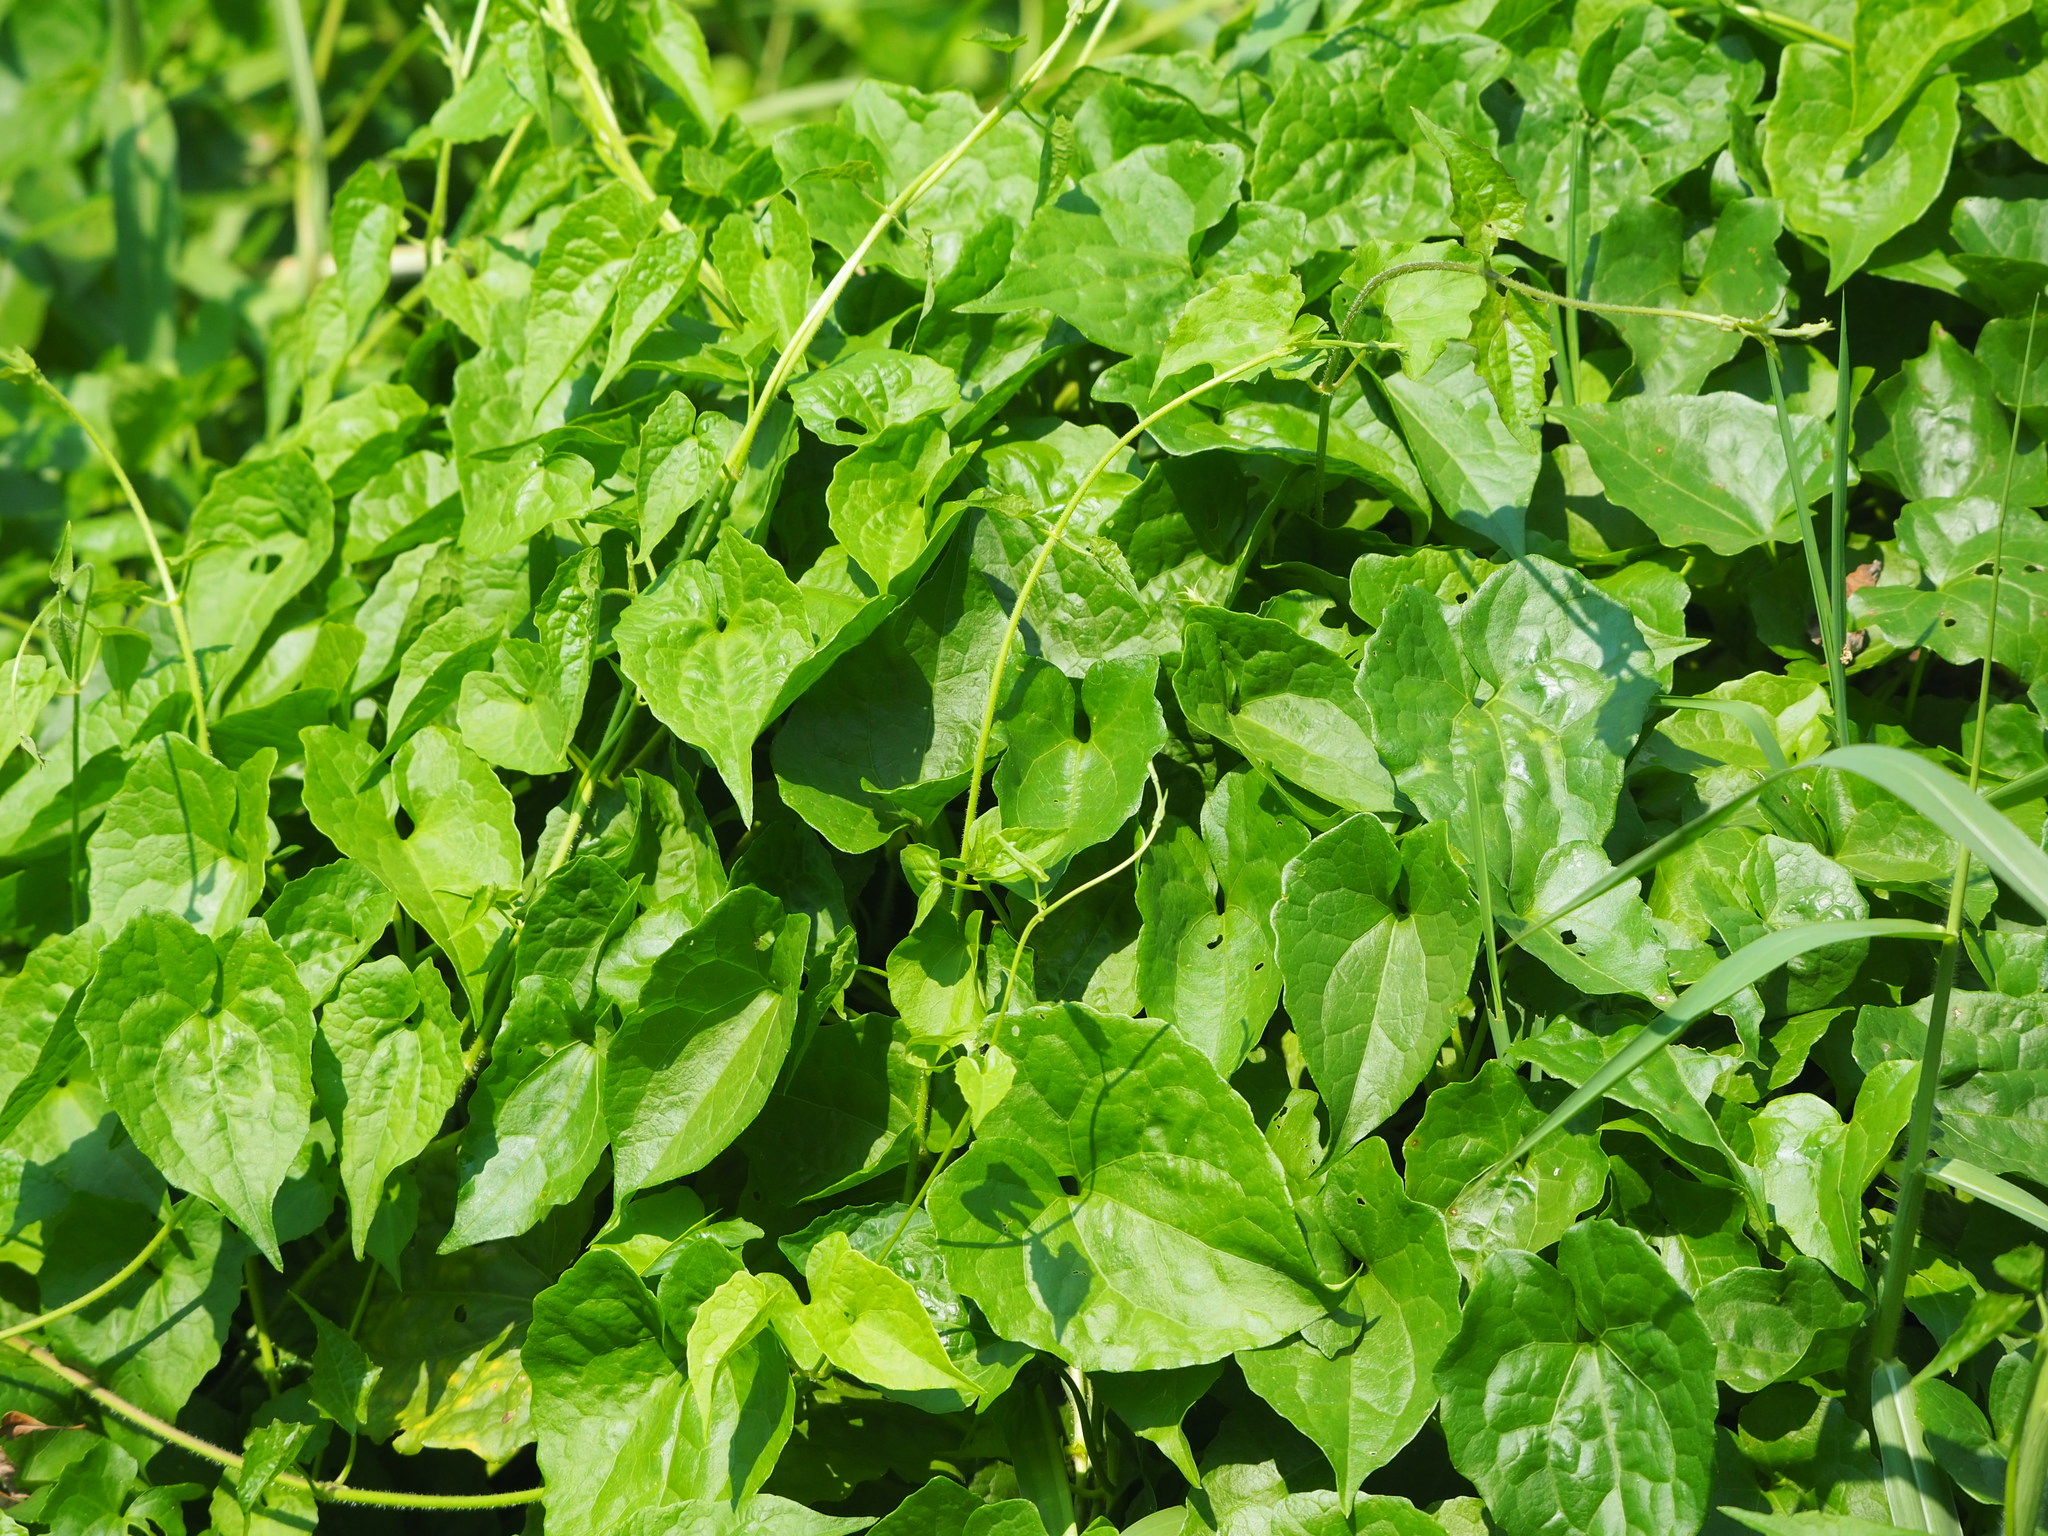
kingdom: Plantae
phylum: Tracheophyta
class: Magnoliopsida
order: Asterales
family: Asteraceae
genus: Mikania
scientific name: Mikania micrantha
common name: Mile-a-minute
